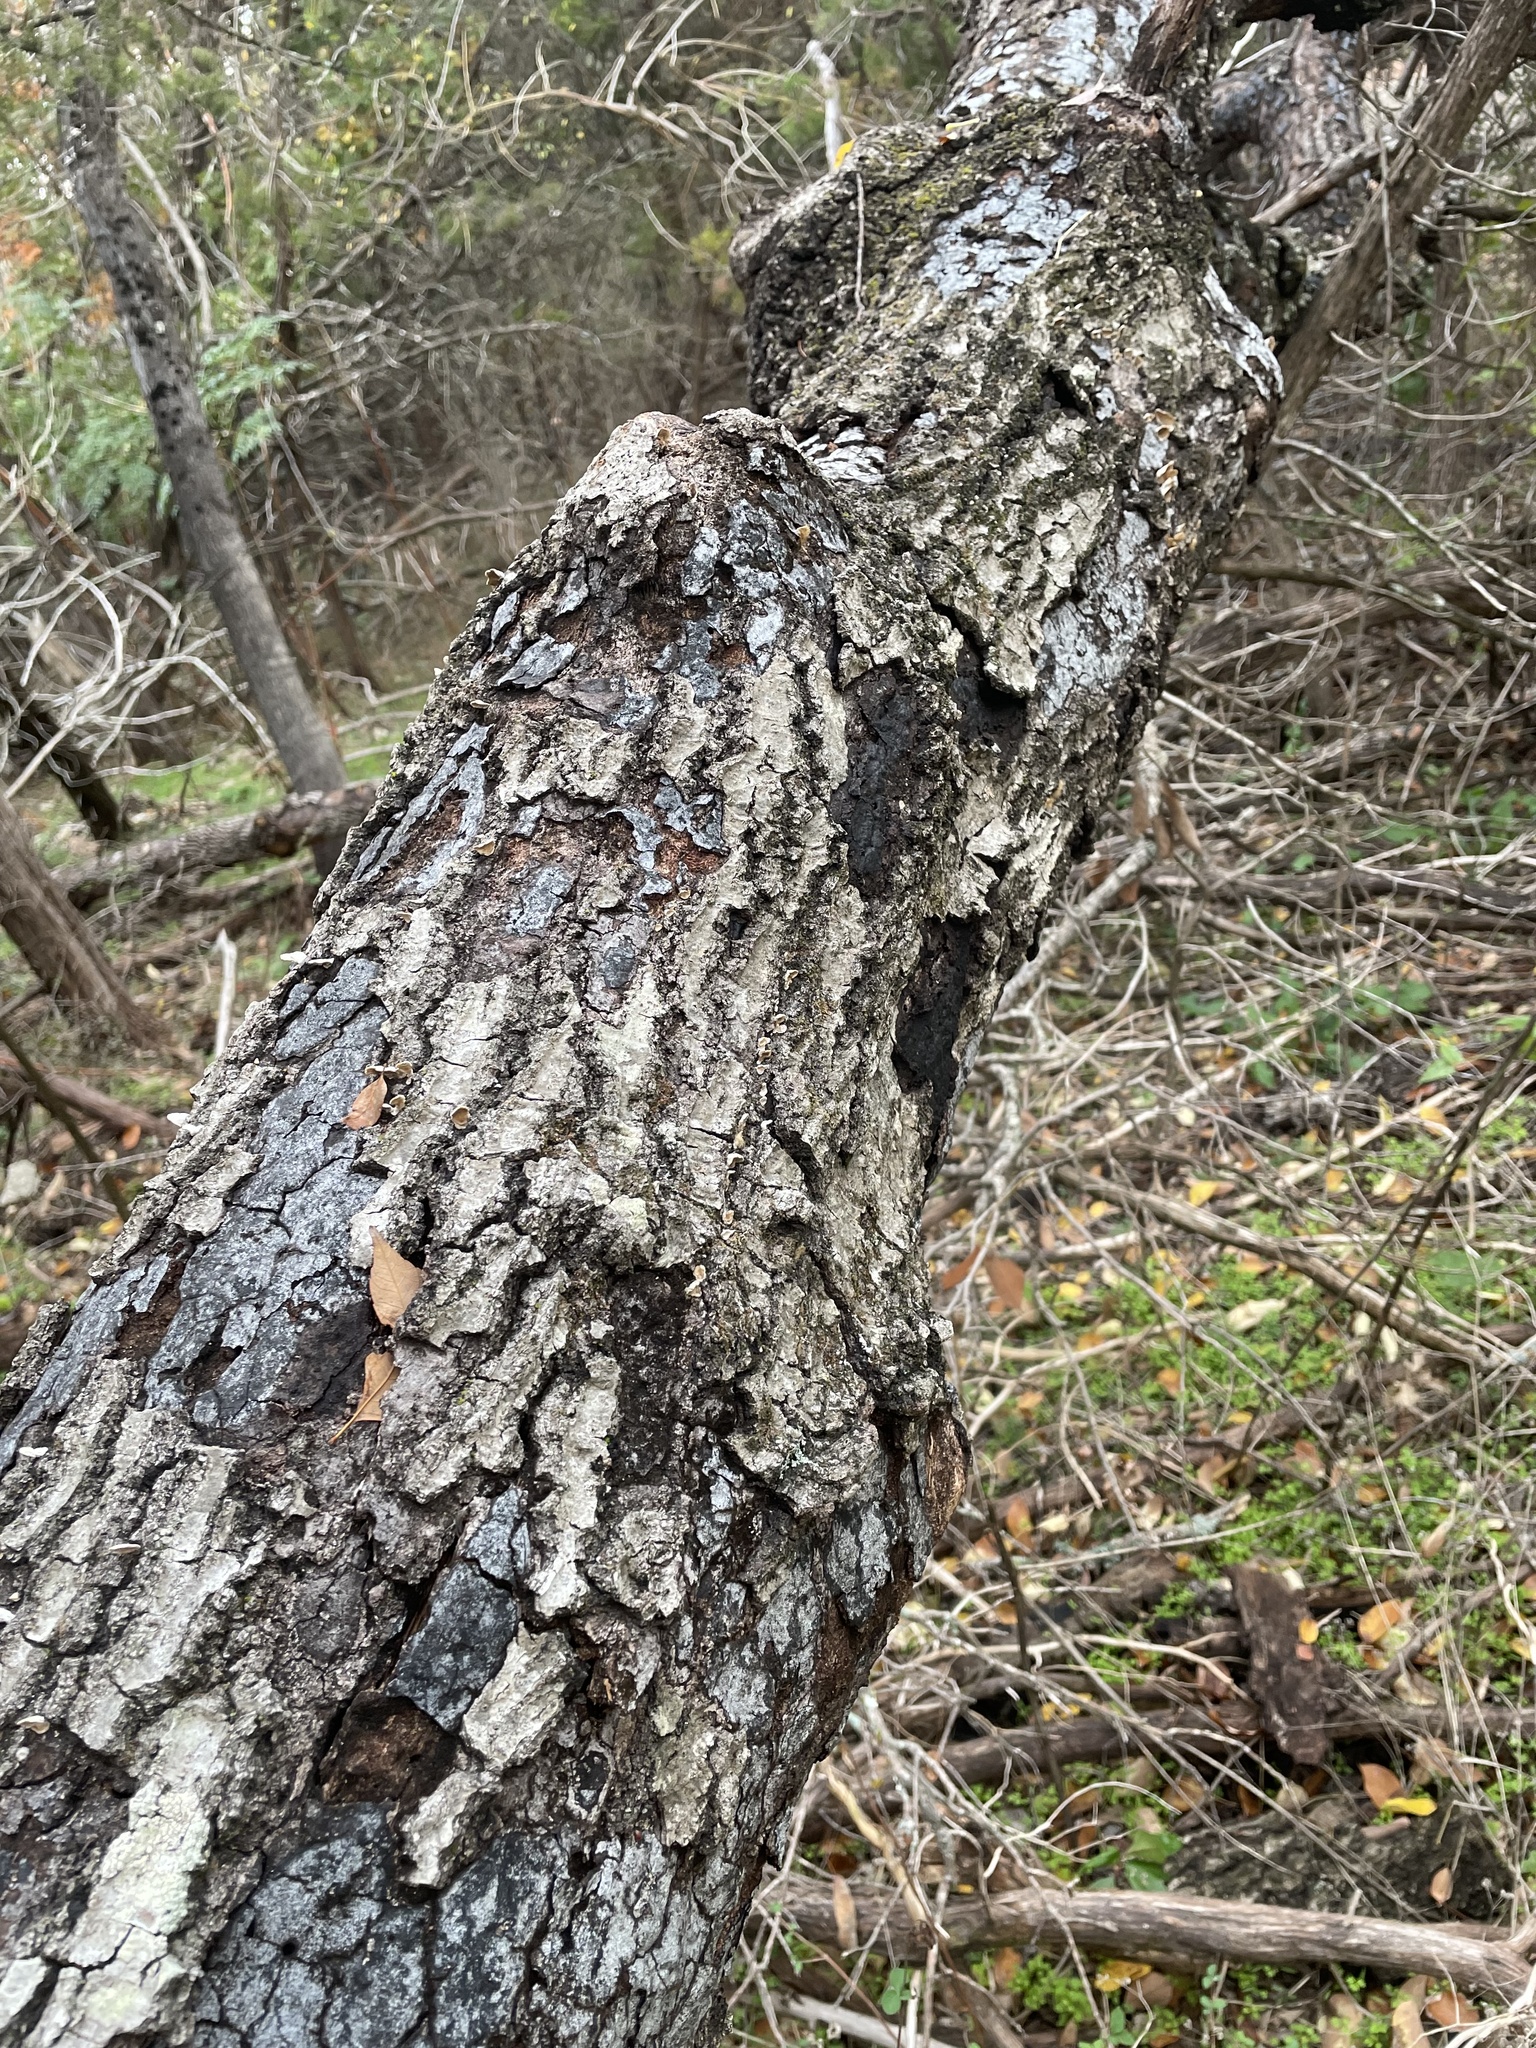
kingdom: Plantae
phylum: Tracheophyta
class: Magnoliopsida
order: Fagales
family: Fagaceae
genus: Quercus
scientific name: Quercus buckleyi
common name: Buckley oak
